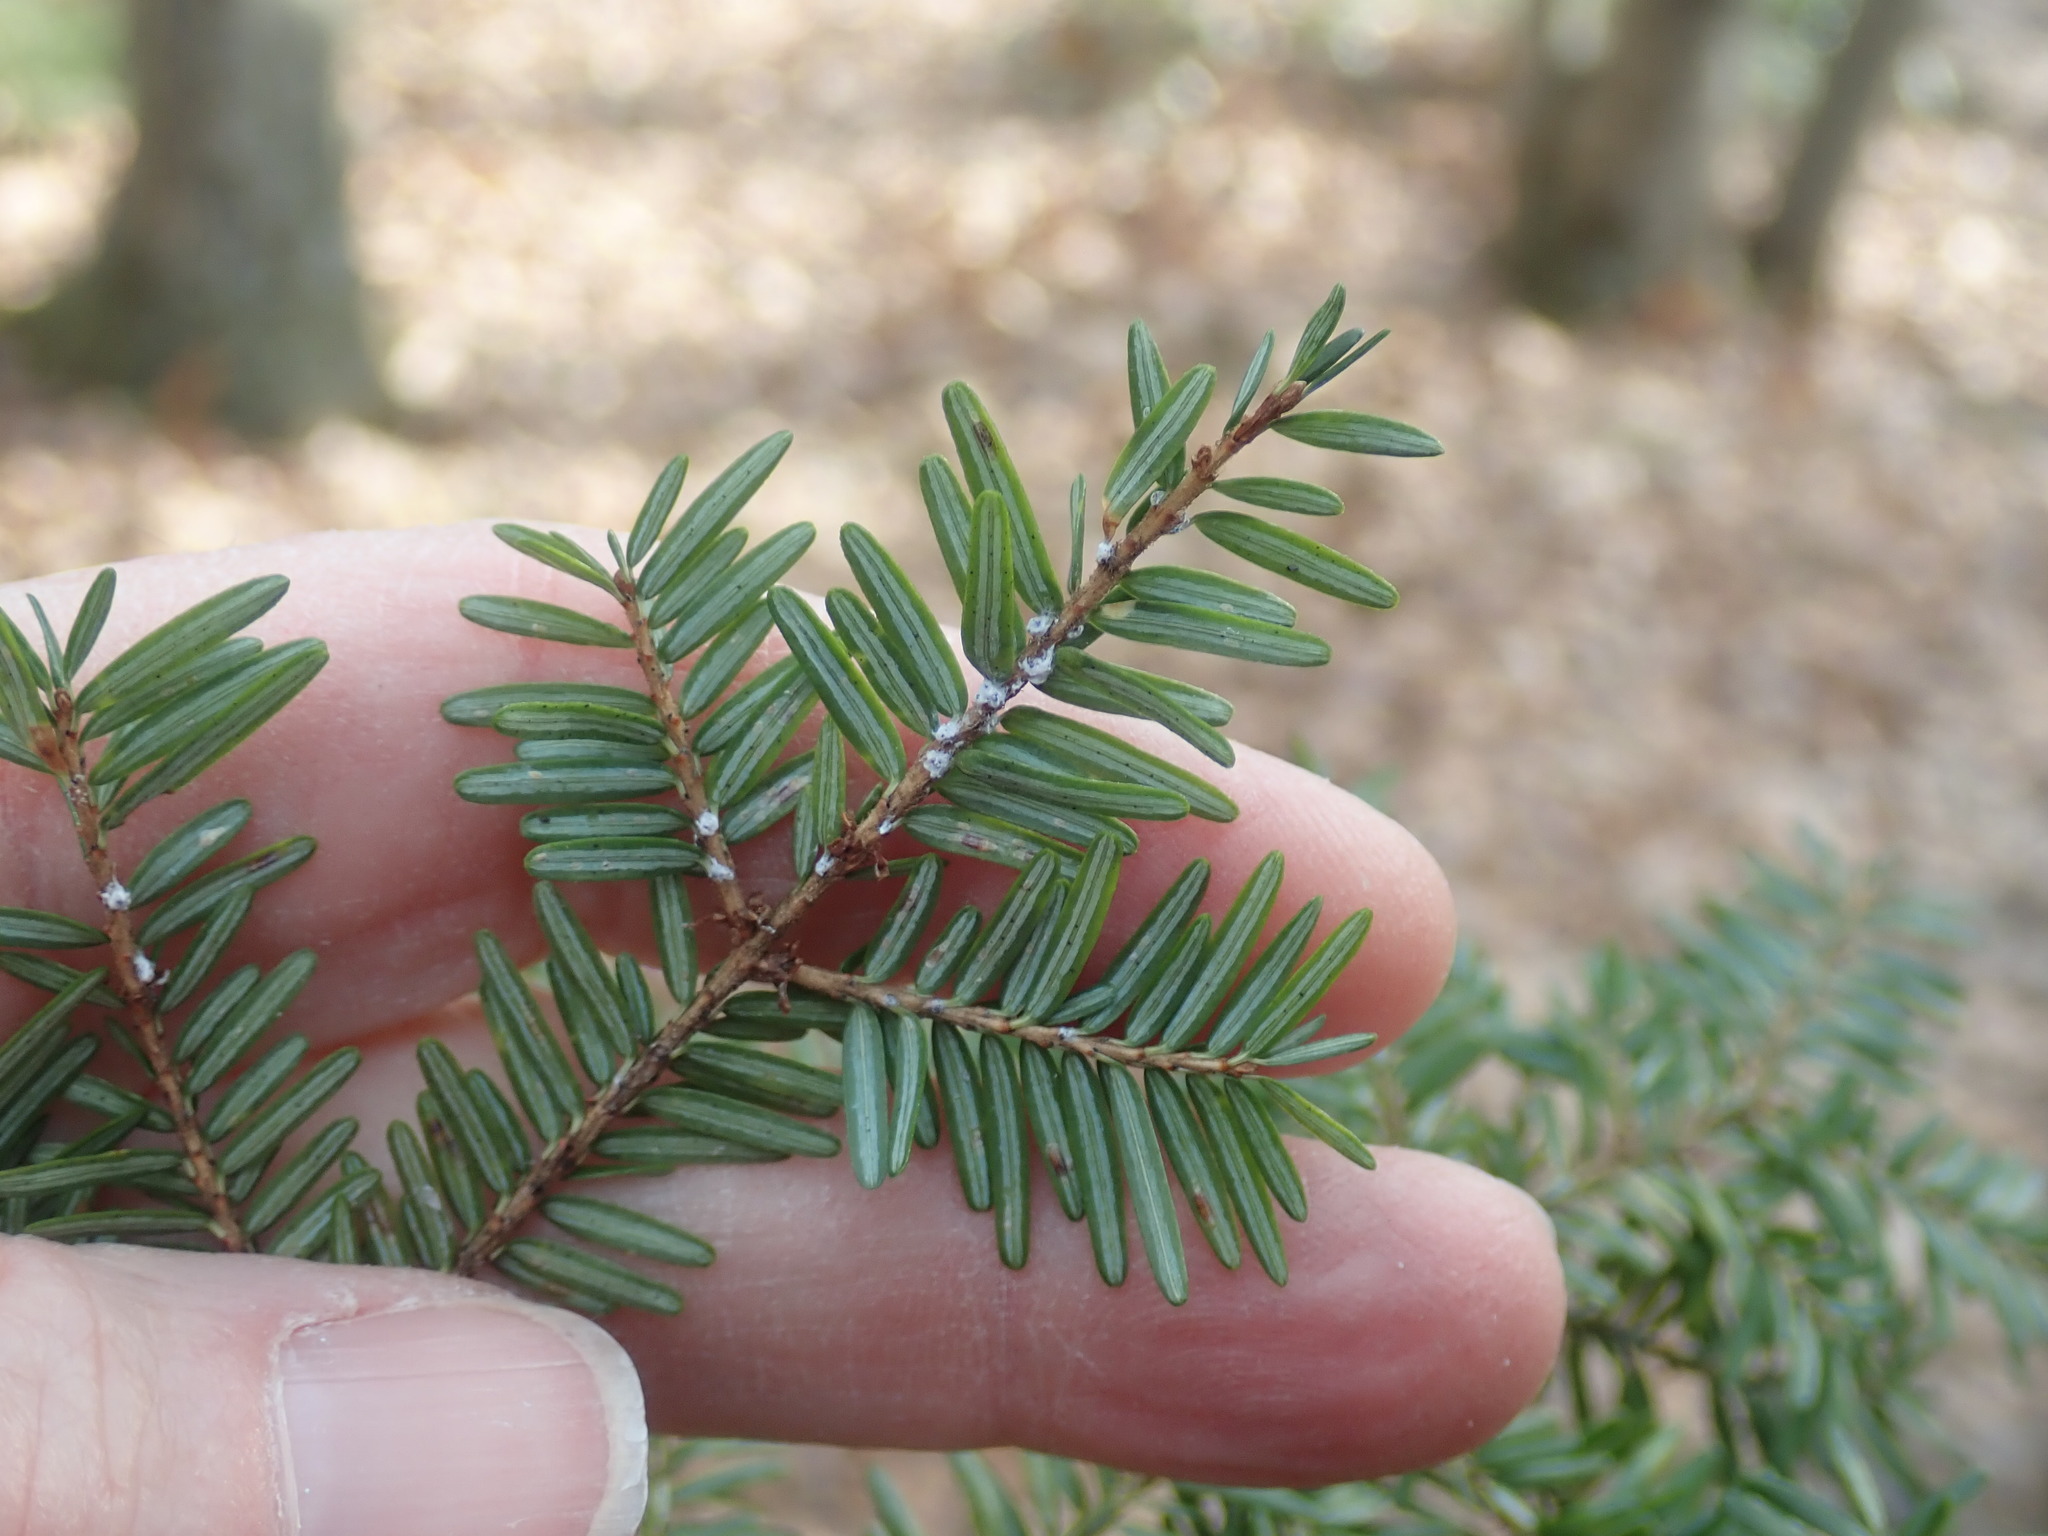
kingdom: Animalia
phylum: Arthropoda
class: Insecta
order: Hemiptera
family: Adelgidae
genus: Adelges
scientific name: Adelges tsugae
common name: Hemlock woolly adelgid
